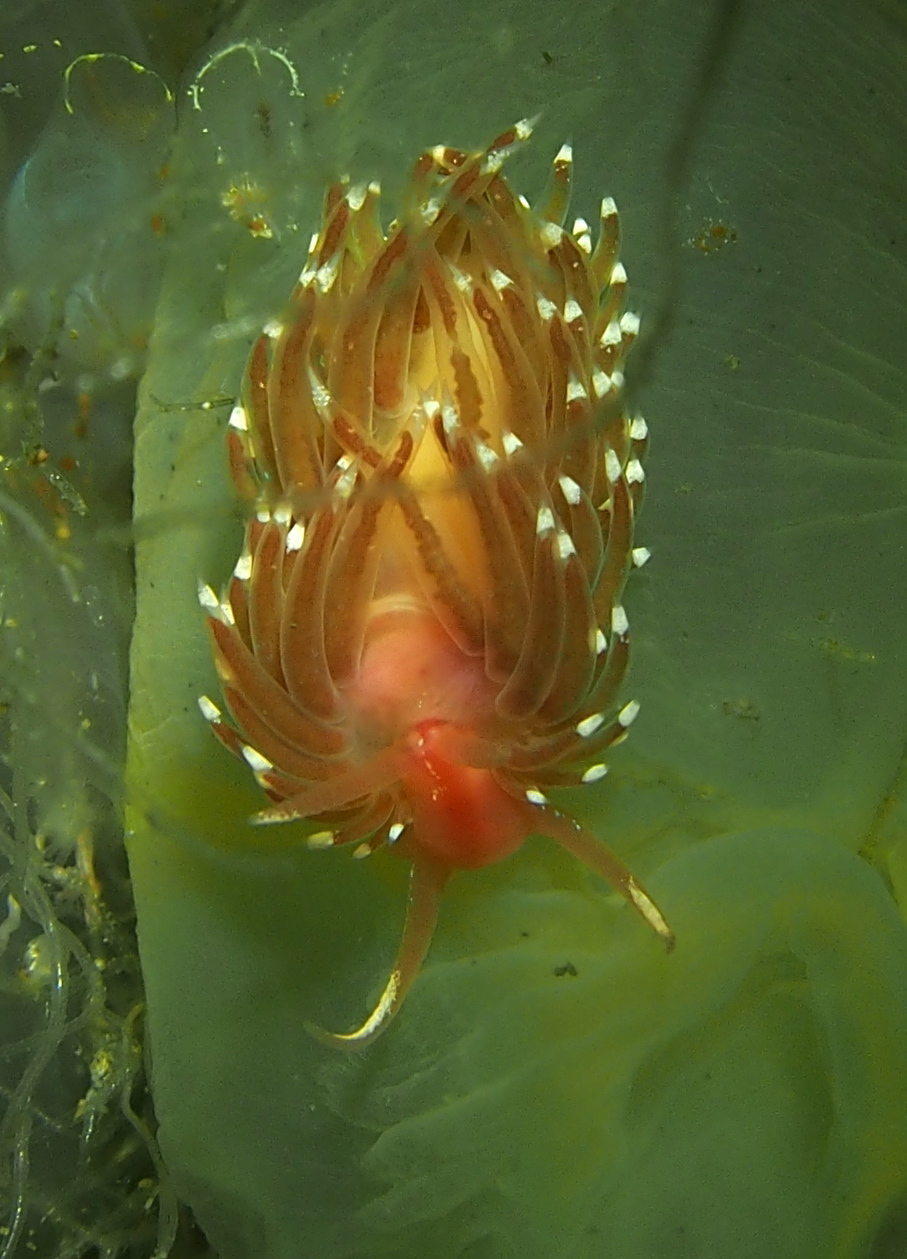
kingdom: Animalia
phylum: Mollusca
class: Gastropoda
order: Nudibranchia
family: Facelinidae
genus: Facelina
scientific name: Facelina bostoniensis
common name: Boston facelina
